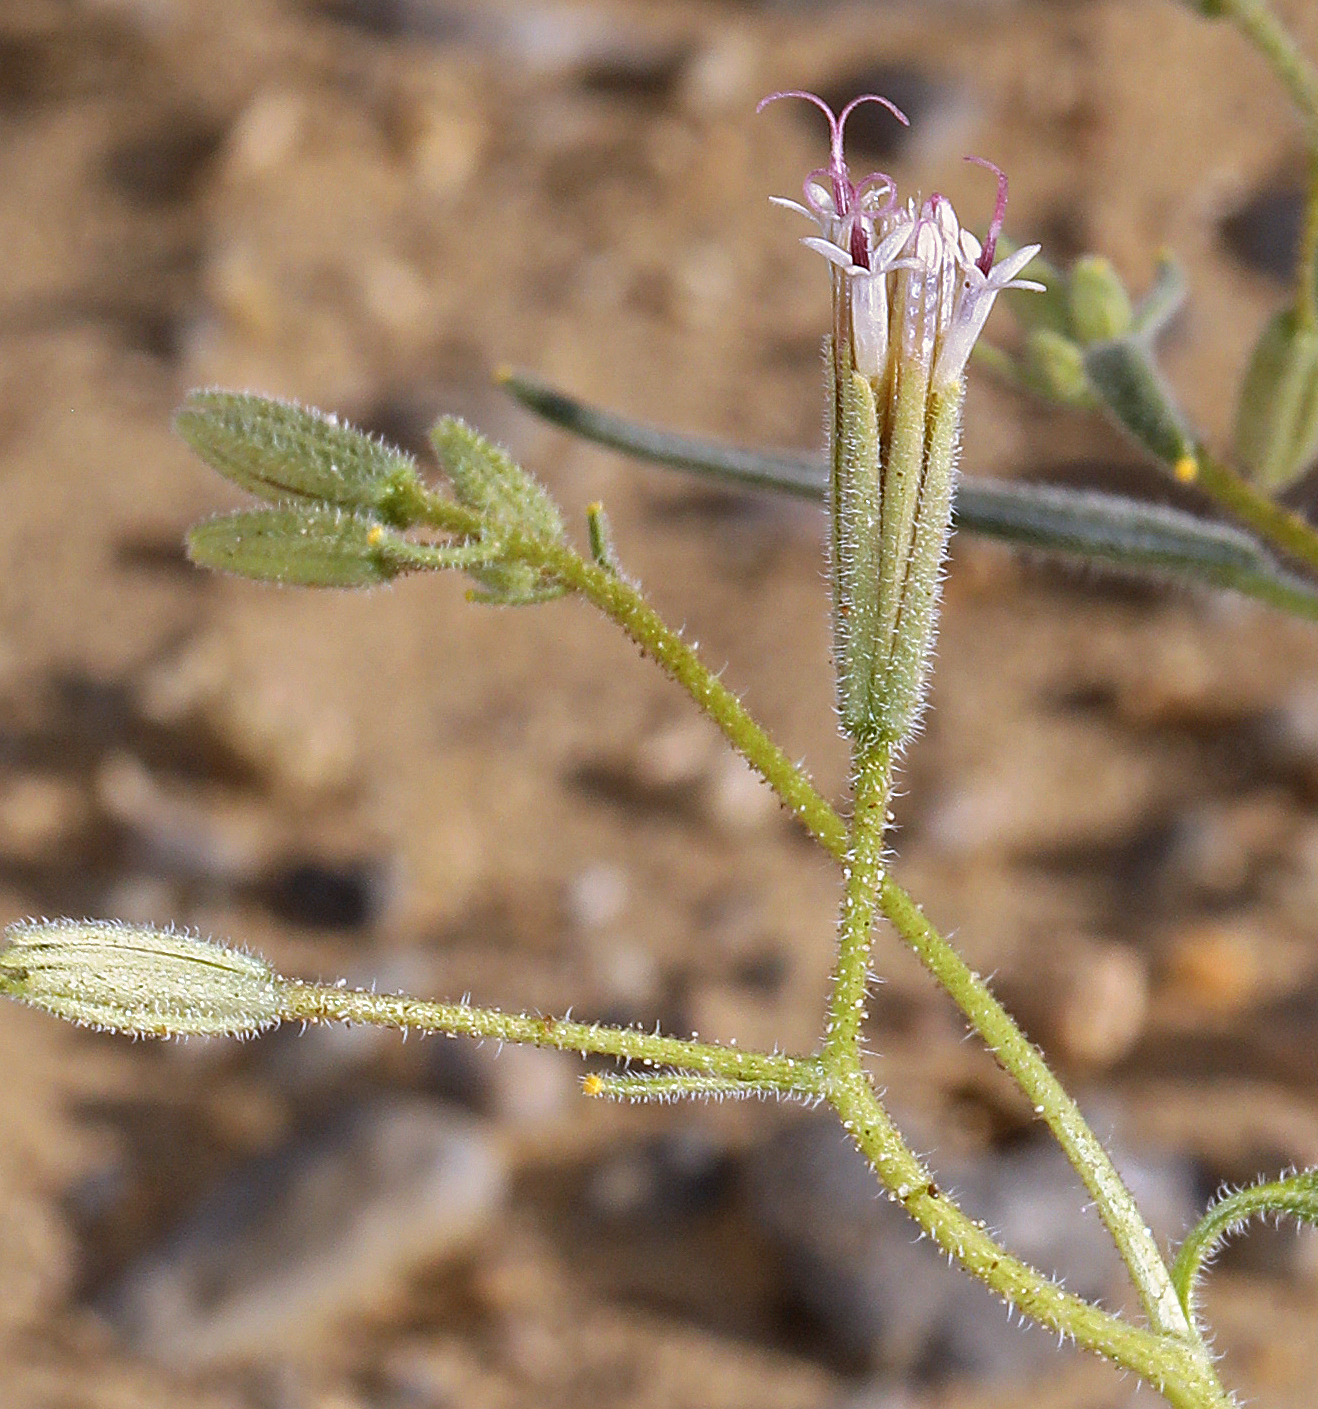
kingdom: Plantae
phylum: Tracheophyta
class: Magnoliopsida
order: Asterales
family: Asteraceae
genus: Palafoxia
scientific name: Palafoxia arida
